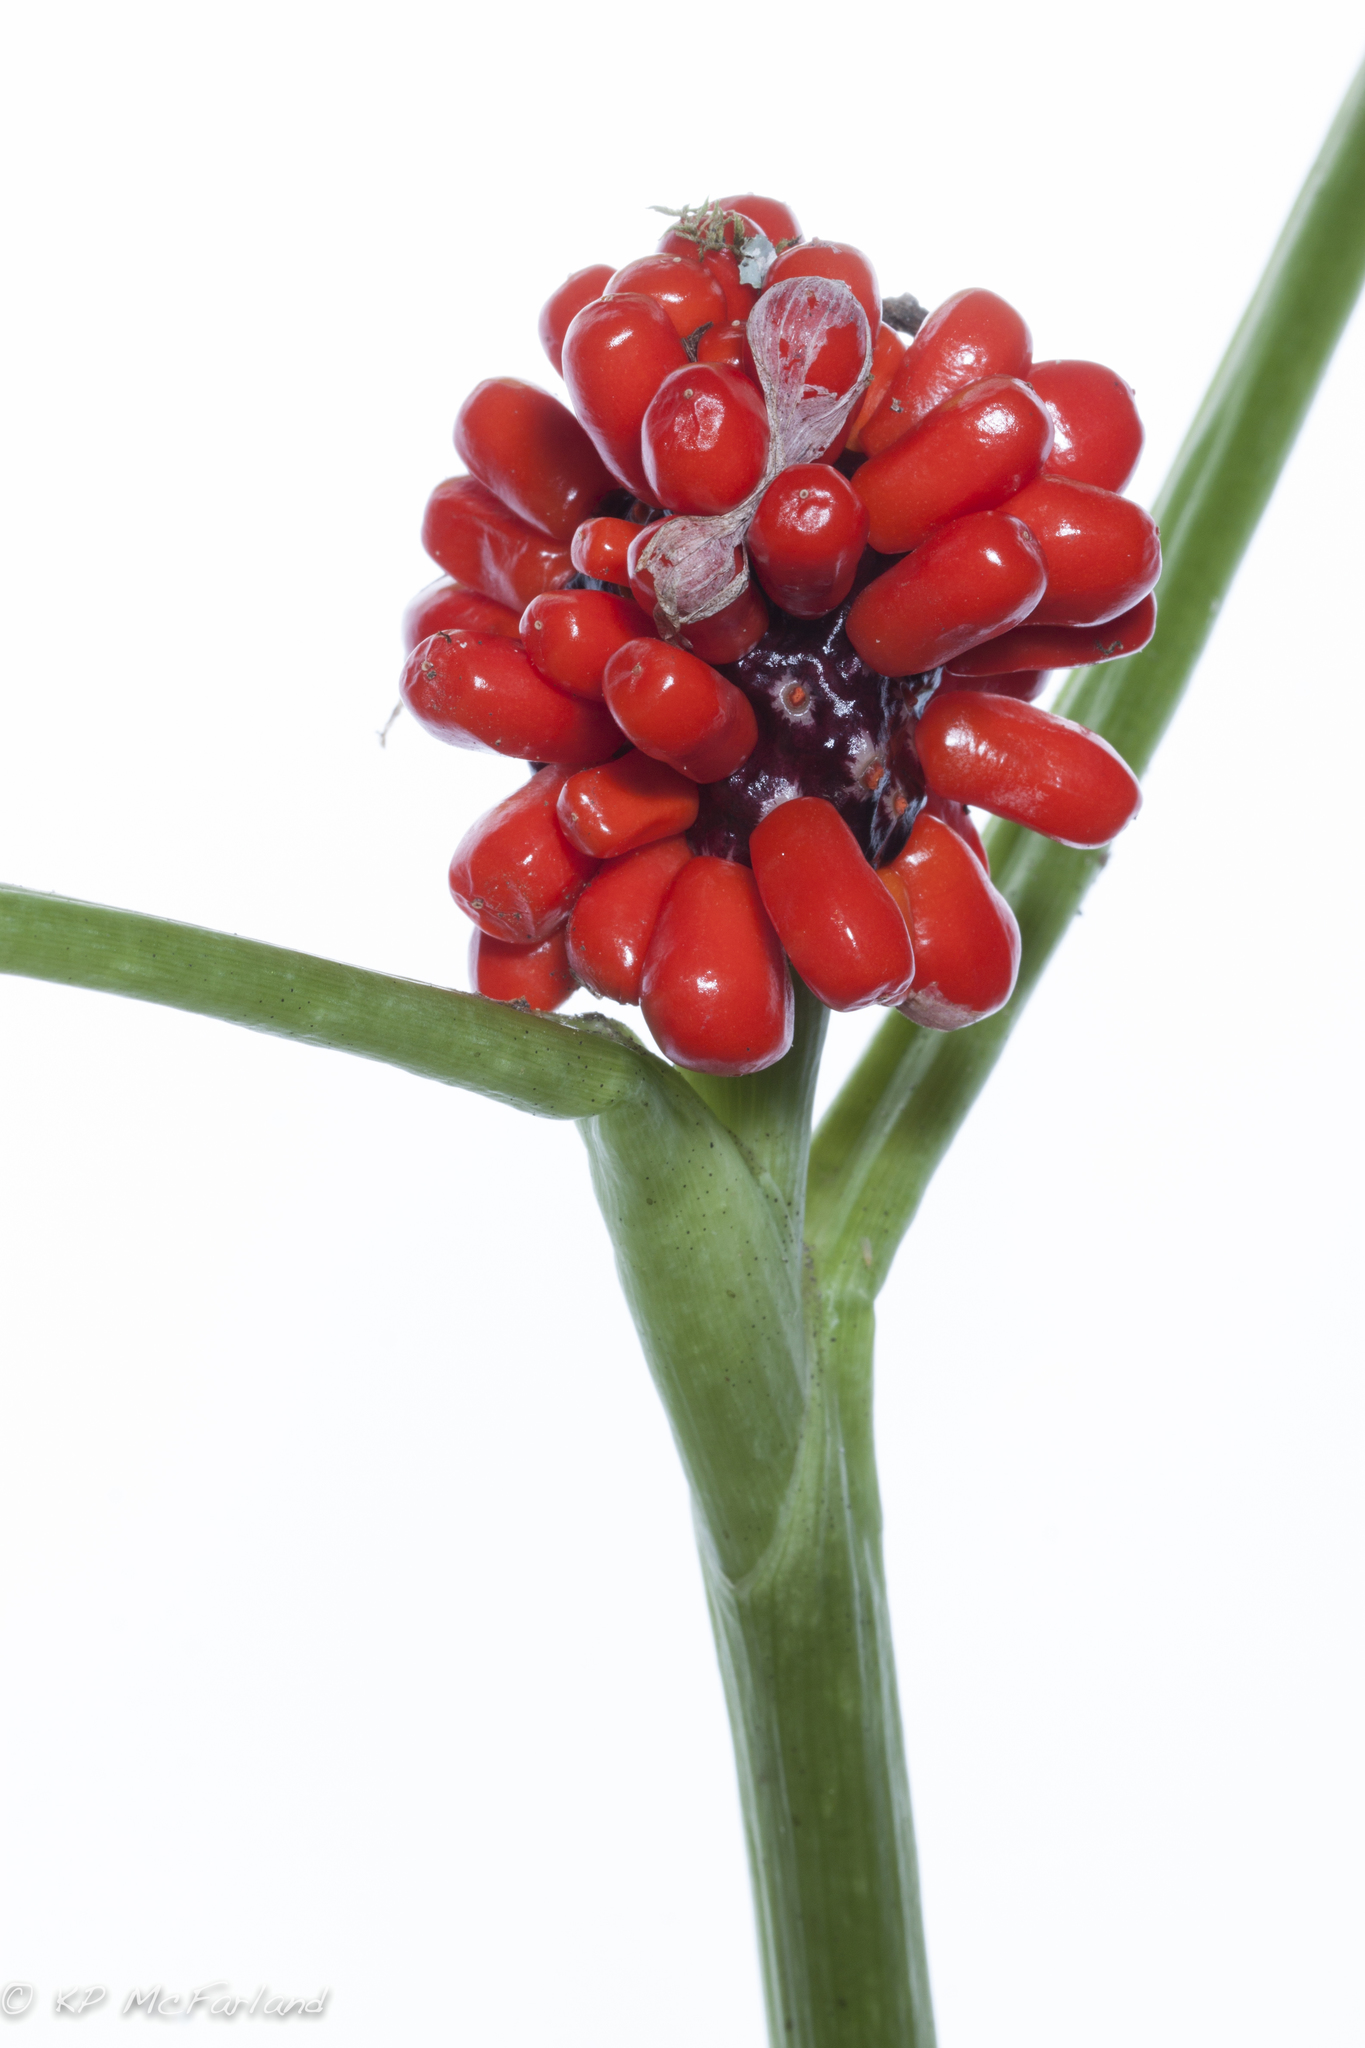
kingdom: Plantae
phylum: Tracheophyta
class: Liliopsida
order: Alismatales
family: Araceae
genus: Arisaema
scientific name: Arisaema triphyllum
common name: Jack-in-the-pulpit
